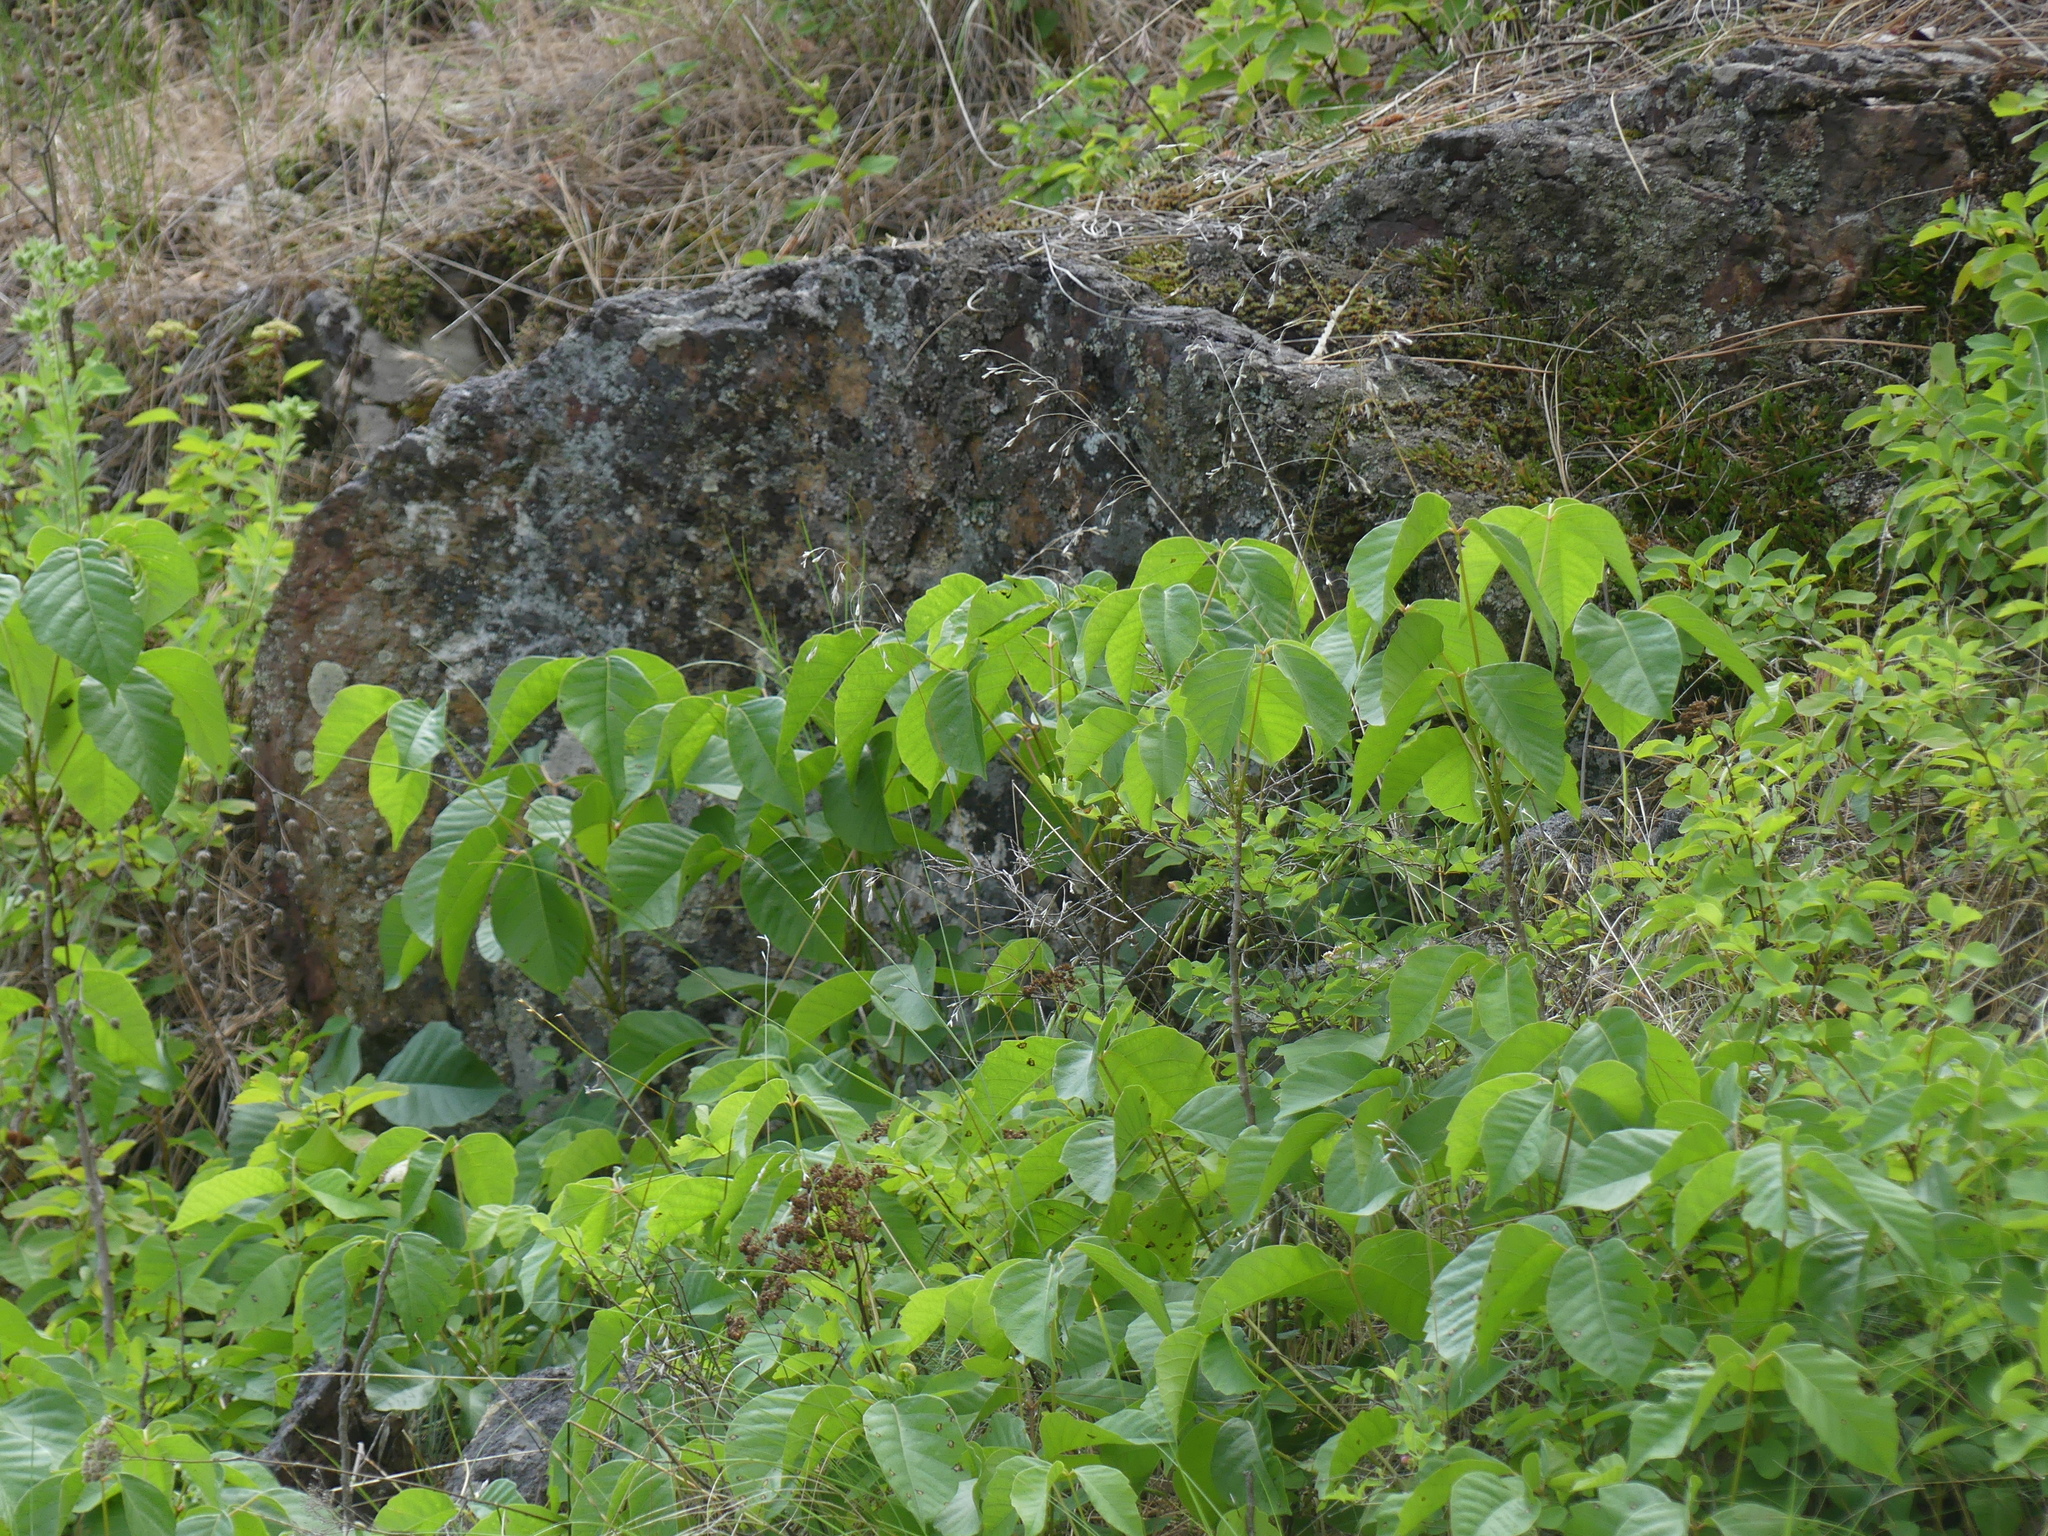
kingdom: Plantae
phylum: Tracheophyta
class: Magnoliopsida
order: Sapindales
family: Anacardiaceae
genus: Toxicodendron
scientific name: Toxicodendron rydbergii
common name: Rydberg's poison-ivy
